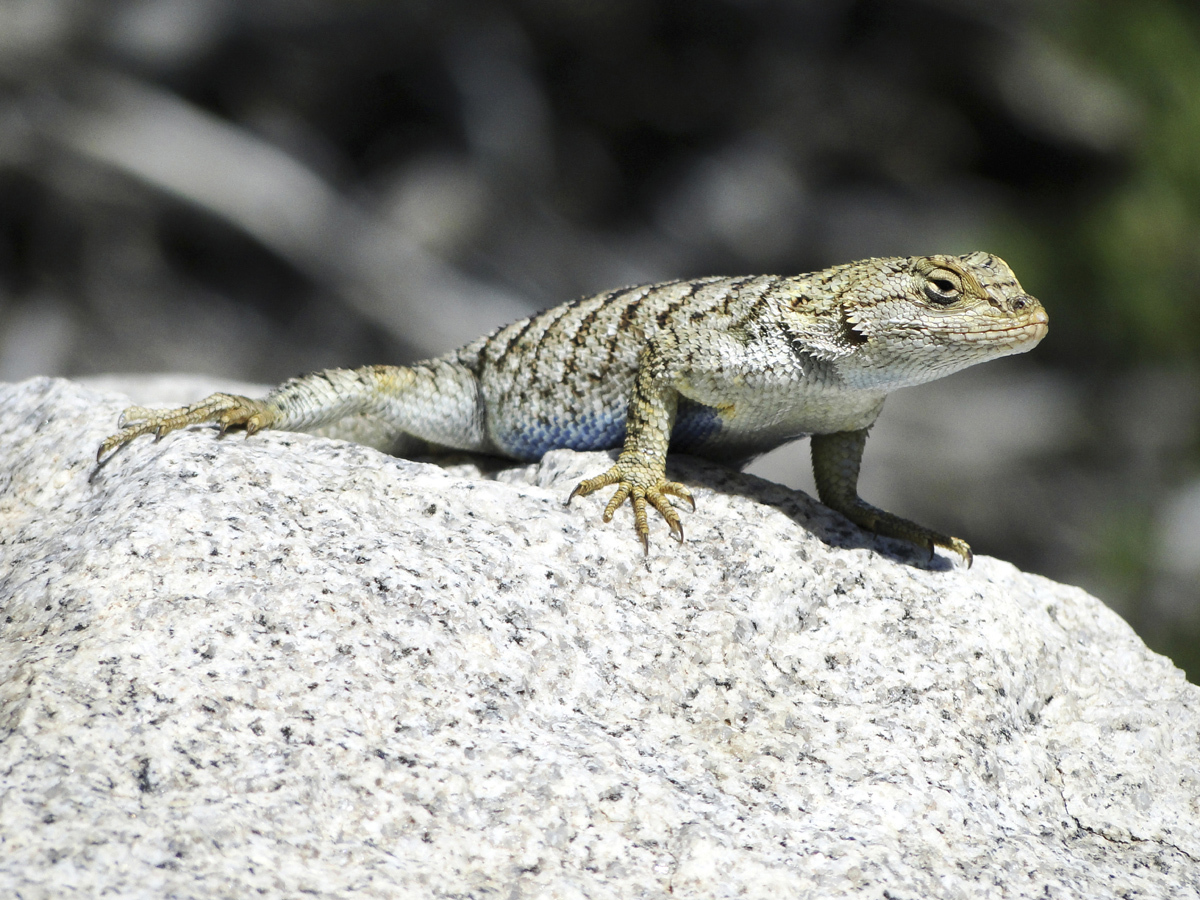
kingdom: Animalia
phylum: Chordata
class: Squamata
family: Phrynosomatidae
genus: Sceloporus
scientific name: Sceloporus occidentalis
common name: Western fence lizard
